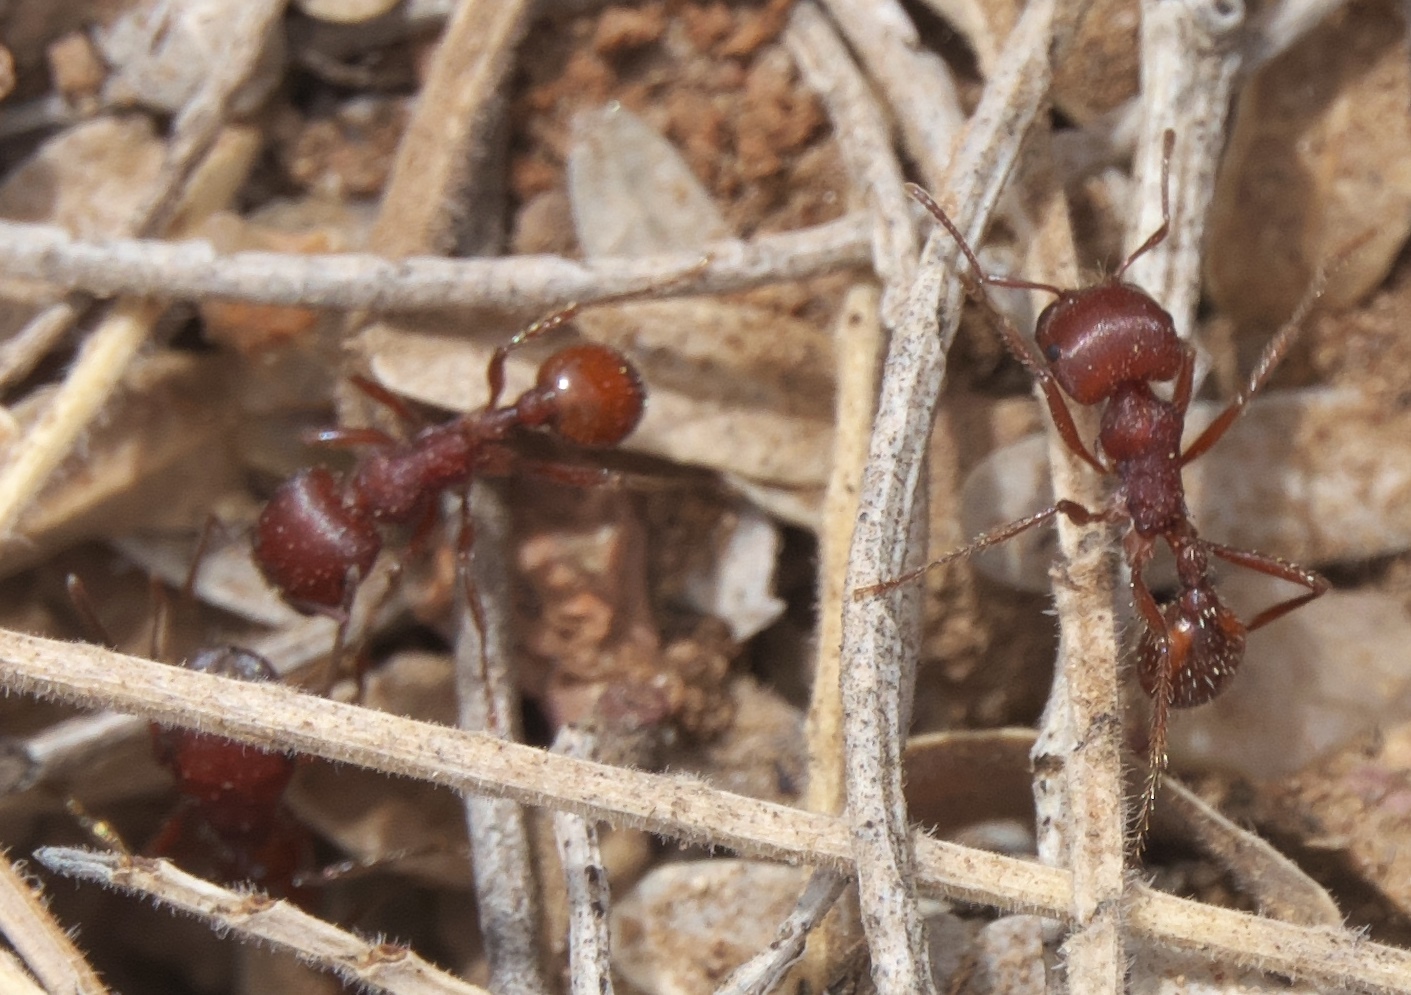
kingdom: Animalia
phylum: Arthropoda
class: Insecta
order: Hymenoptera
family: Formicidae
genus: Pogonomyrmex
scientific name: Pogonomyrmex barbatus
